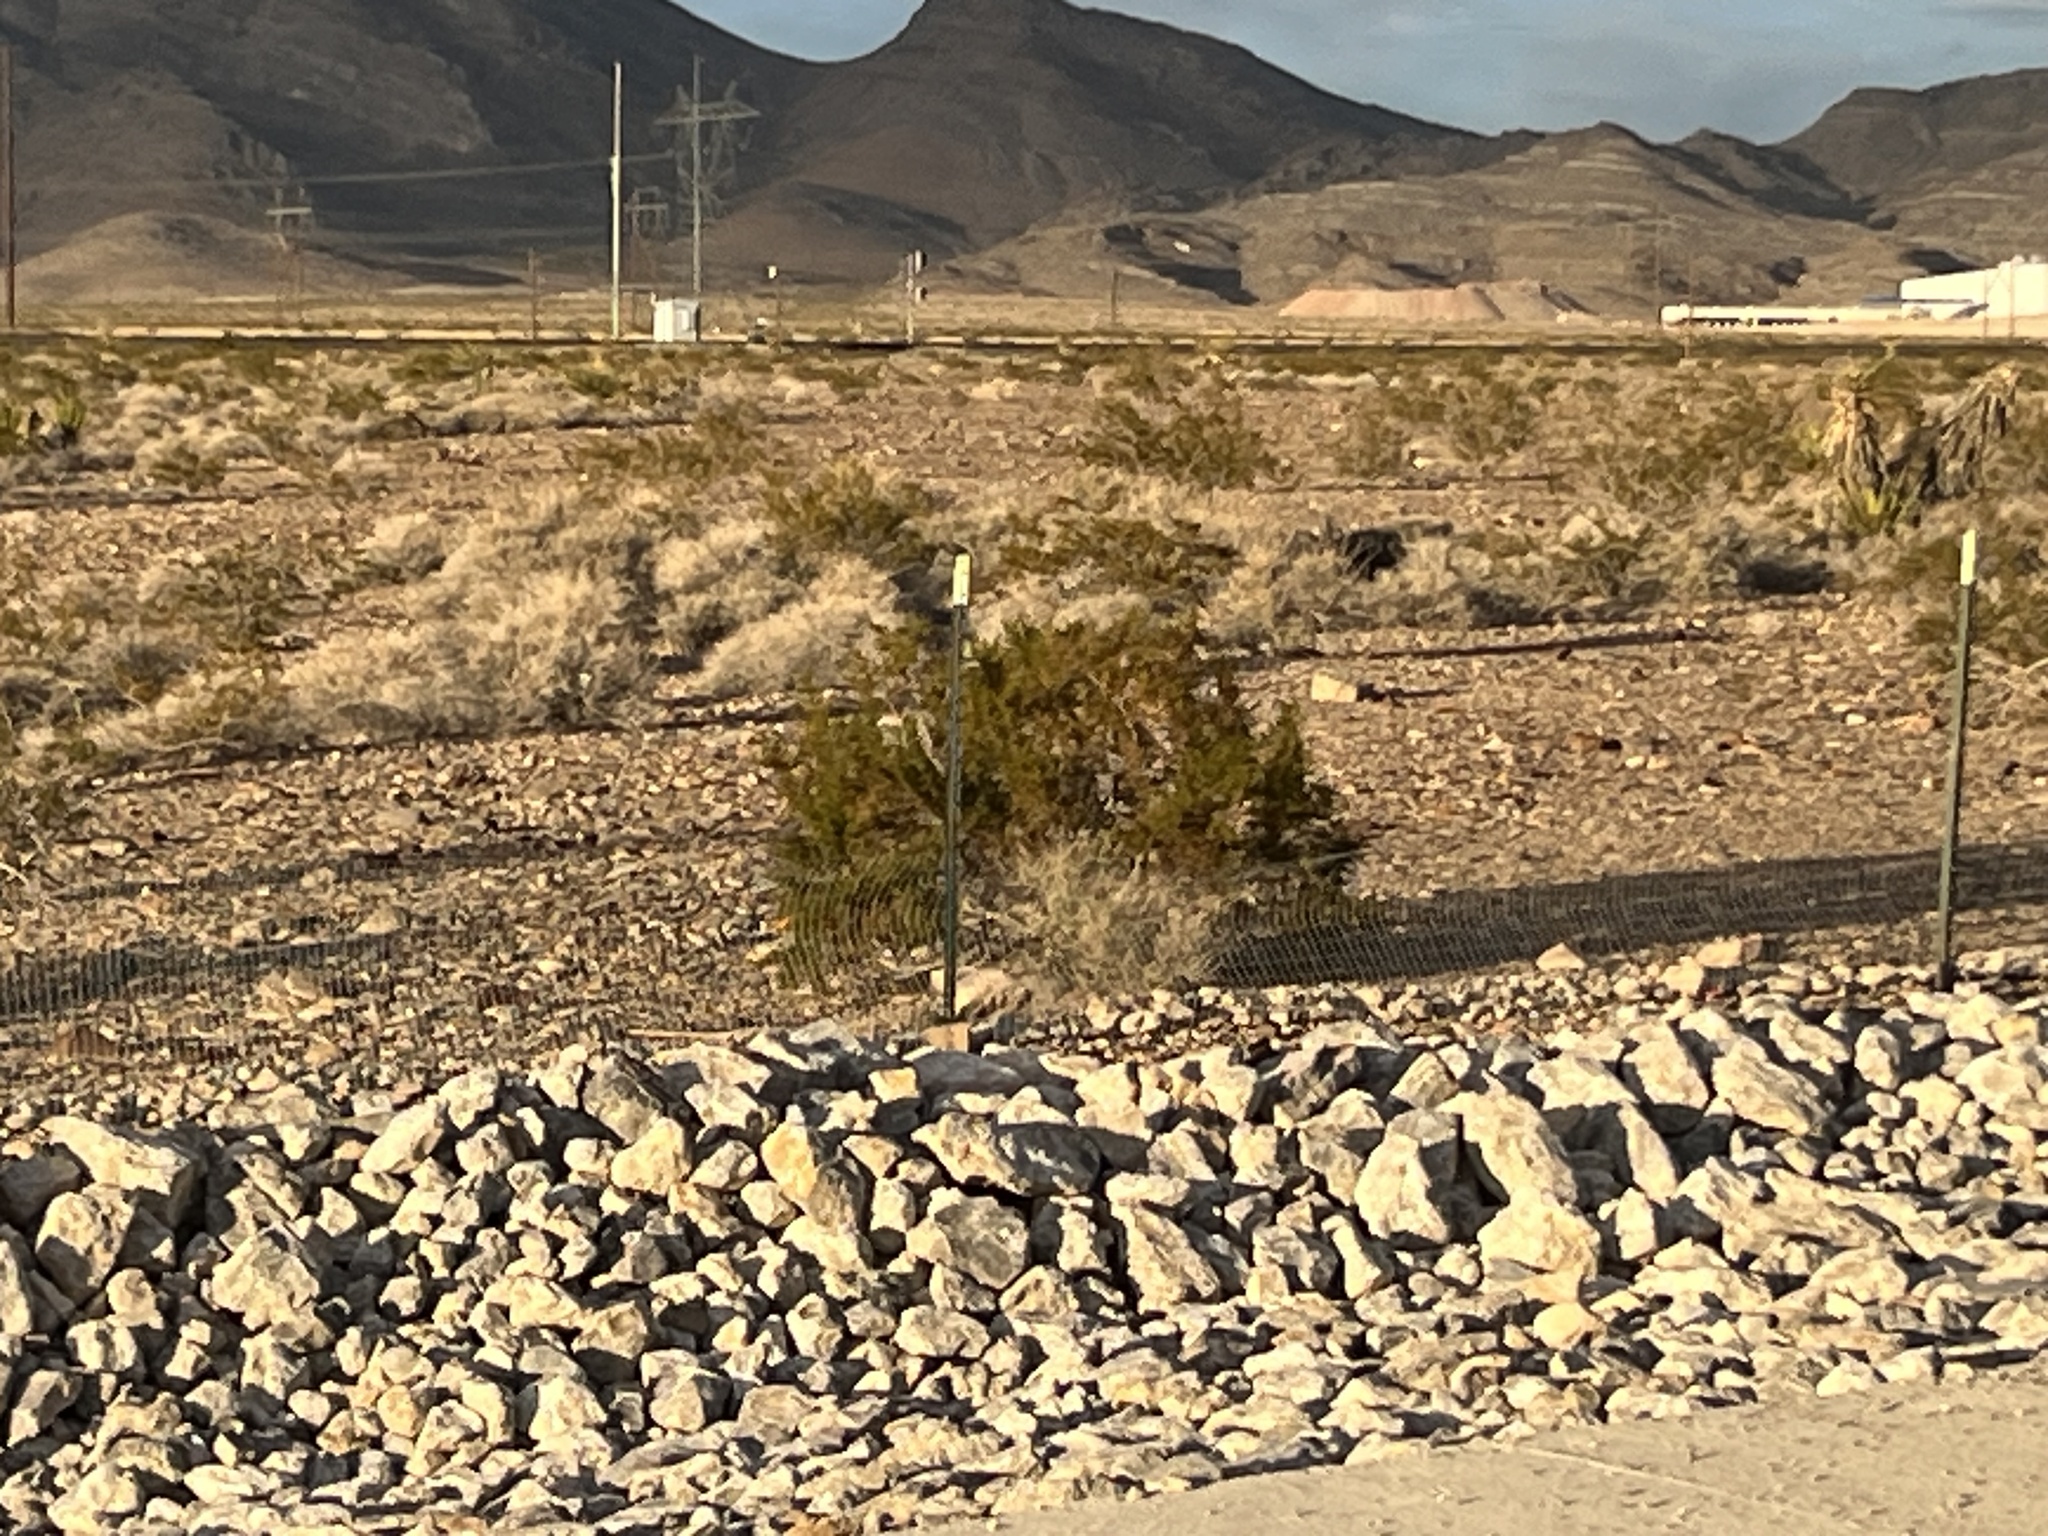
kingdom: Plantae
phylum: Tracheophyta
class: Magnoliopsida
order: Zygophyllales
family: Zygophyllaceae
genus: Larrea
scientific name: Larrea tridentata
